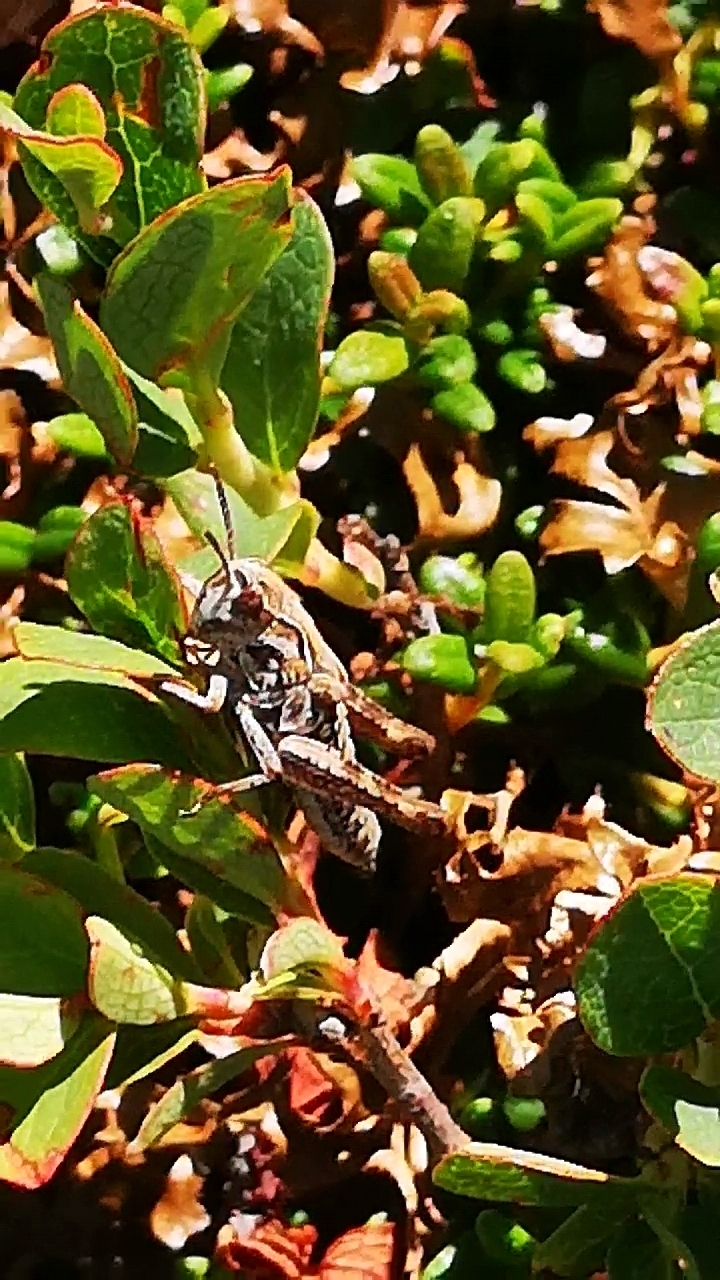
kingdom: Animalia
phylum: Arthropoda
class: Insecta
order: Orthoptera
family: Acrididae
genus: Gomphocerus
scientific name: Gomphocerus sibiricus
